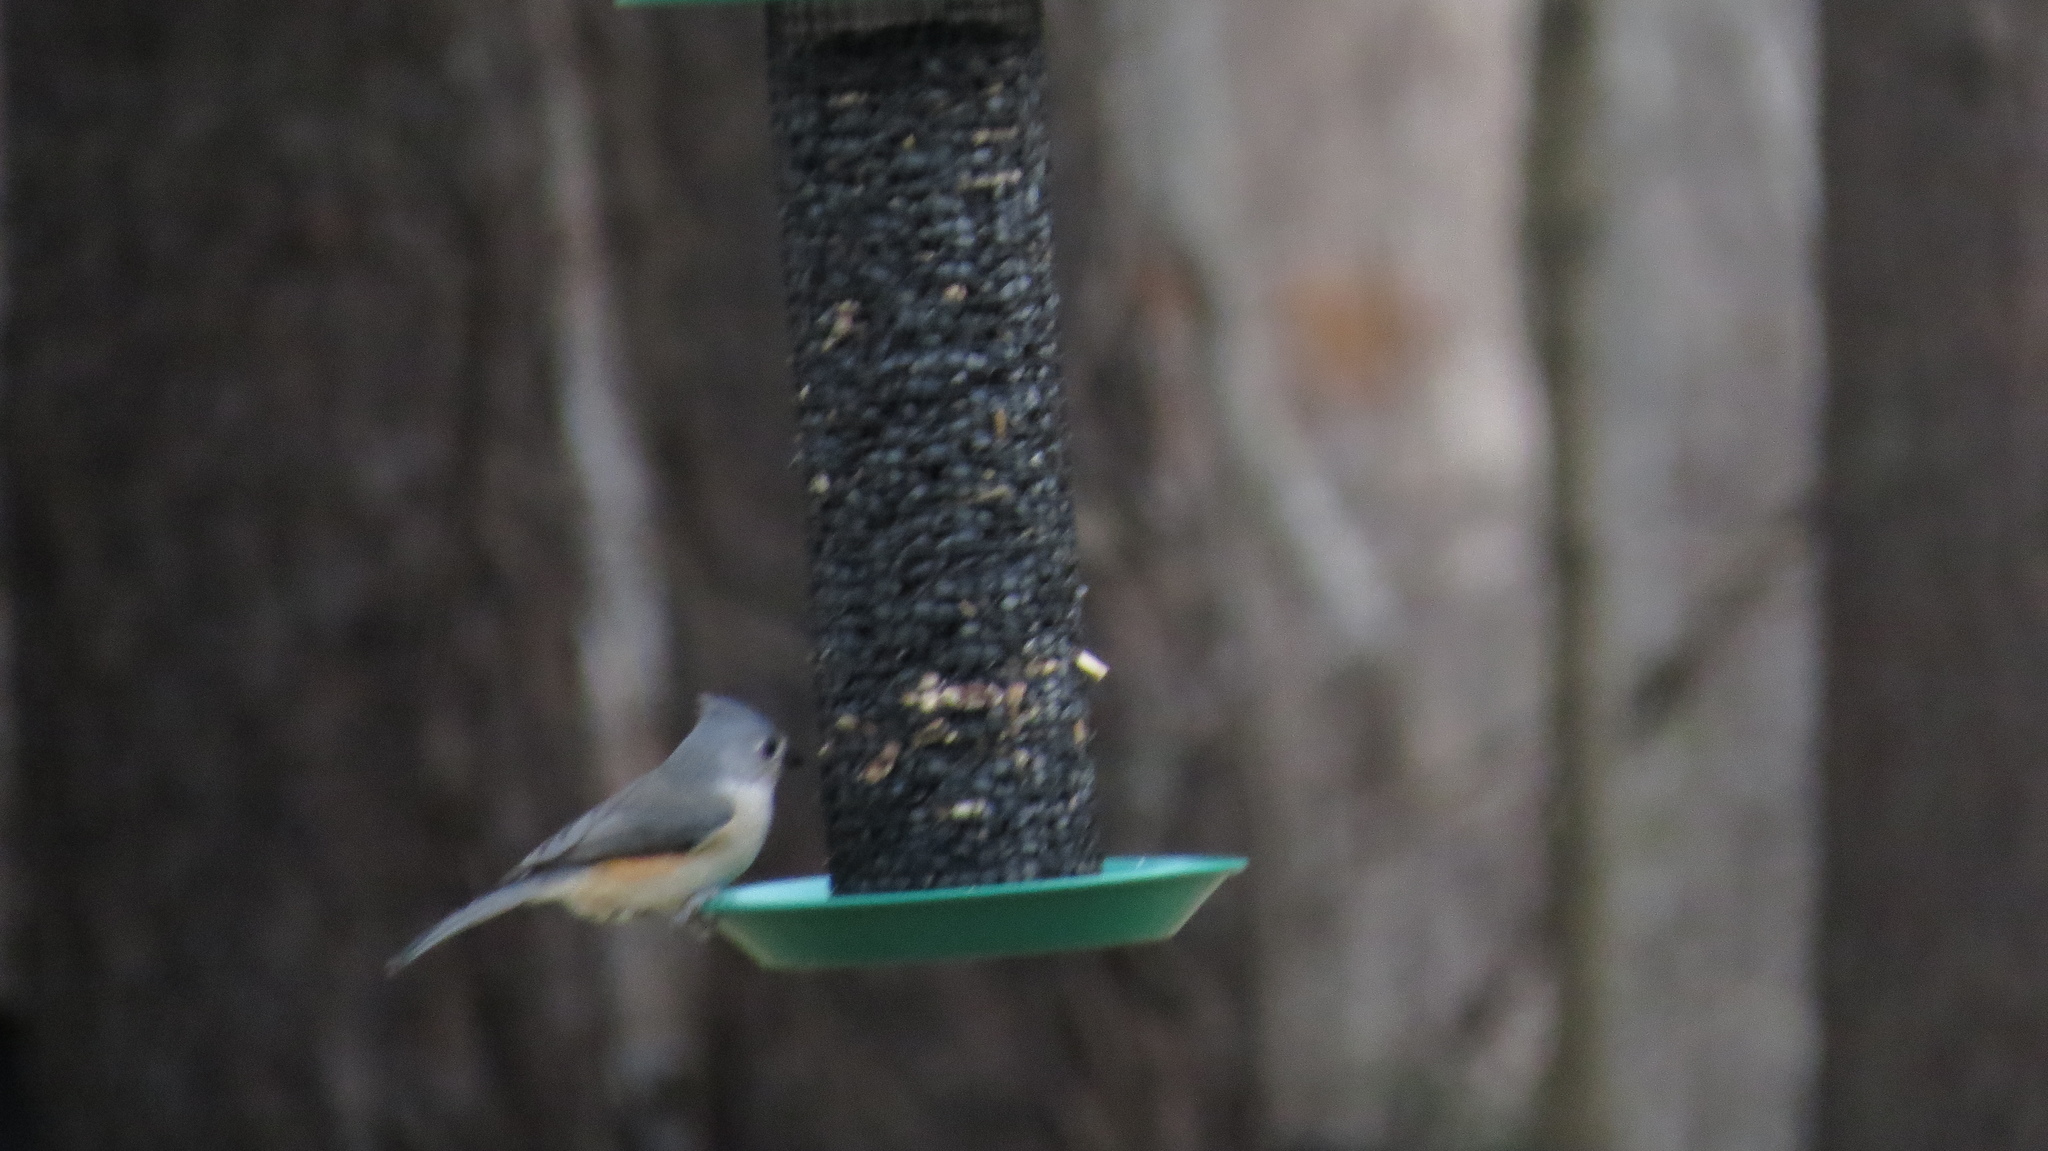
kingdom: Animalia
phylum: Chordata
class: Aves
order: Passeriformes
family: Paridae
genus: Baeolophus
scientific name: Baeolophus bicolor
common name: Tufted titmouse
